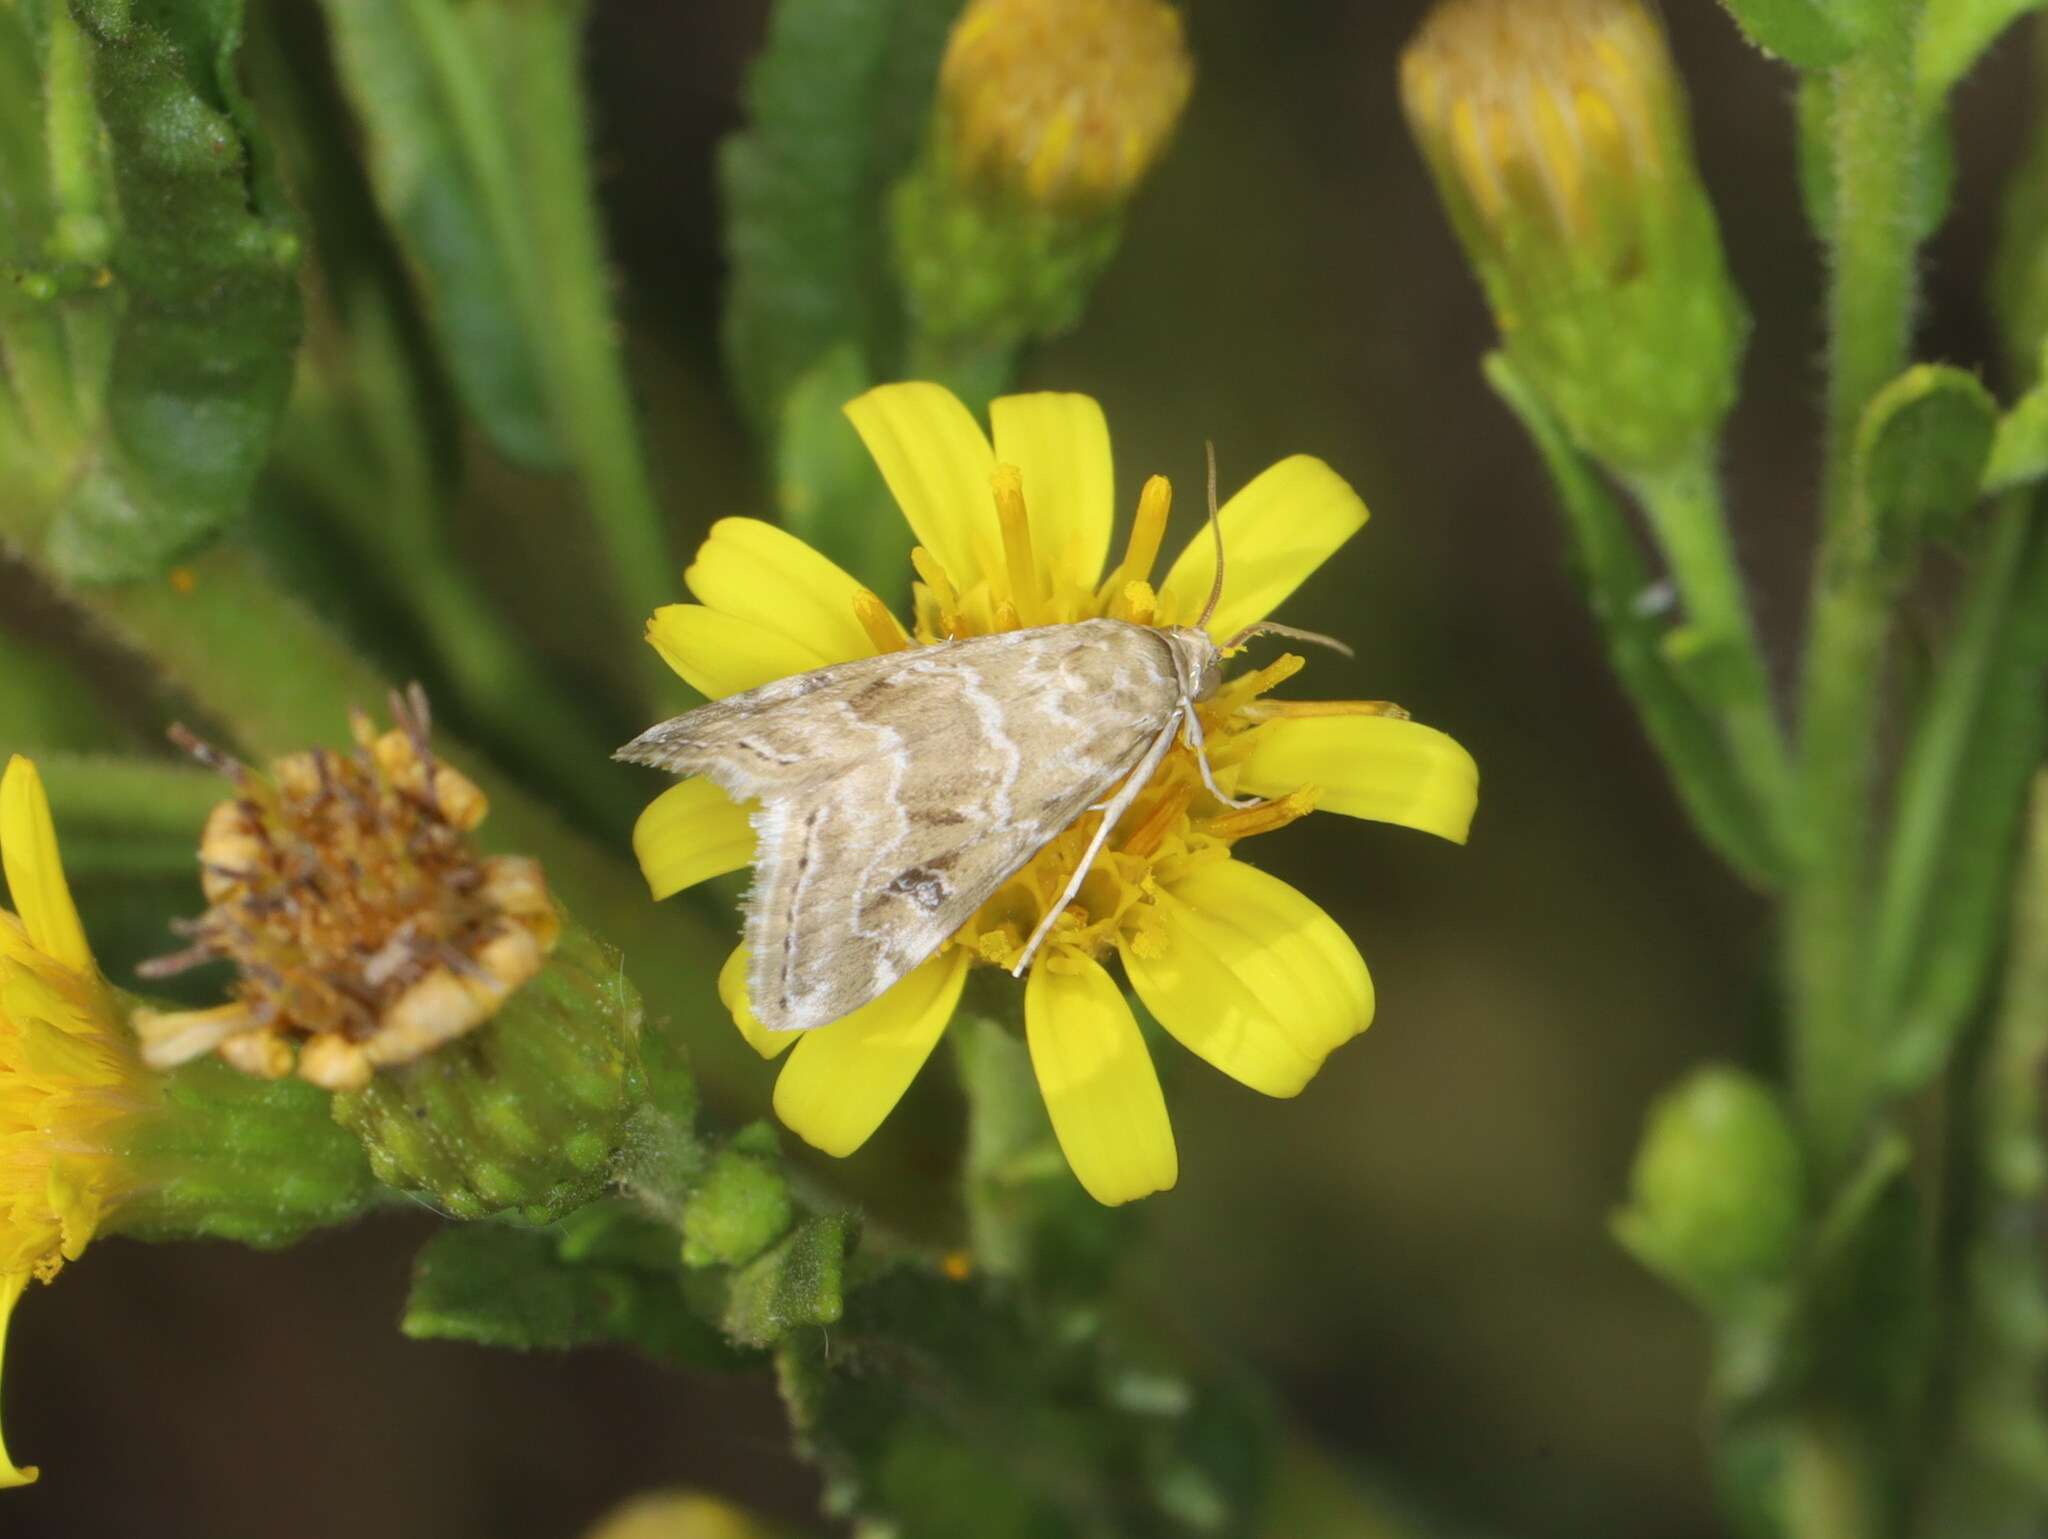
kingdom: Animalia
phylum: Arthropoda
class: Insecta
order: Lepidoptera
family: Crambidae
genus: Hellula
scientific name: Hellula undalis
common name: Cabbage webworm
